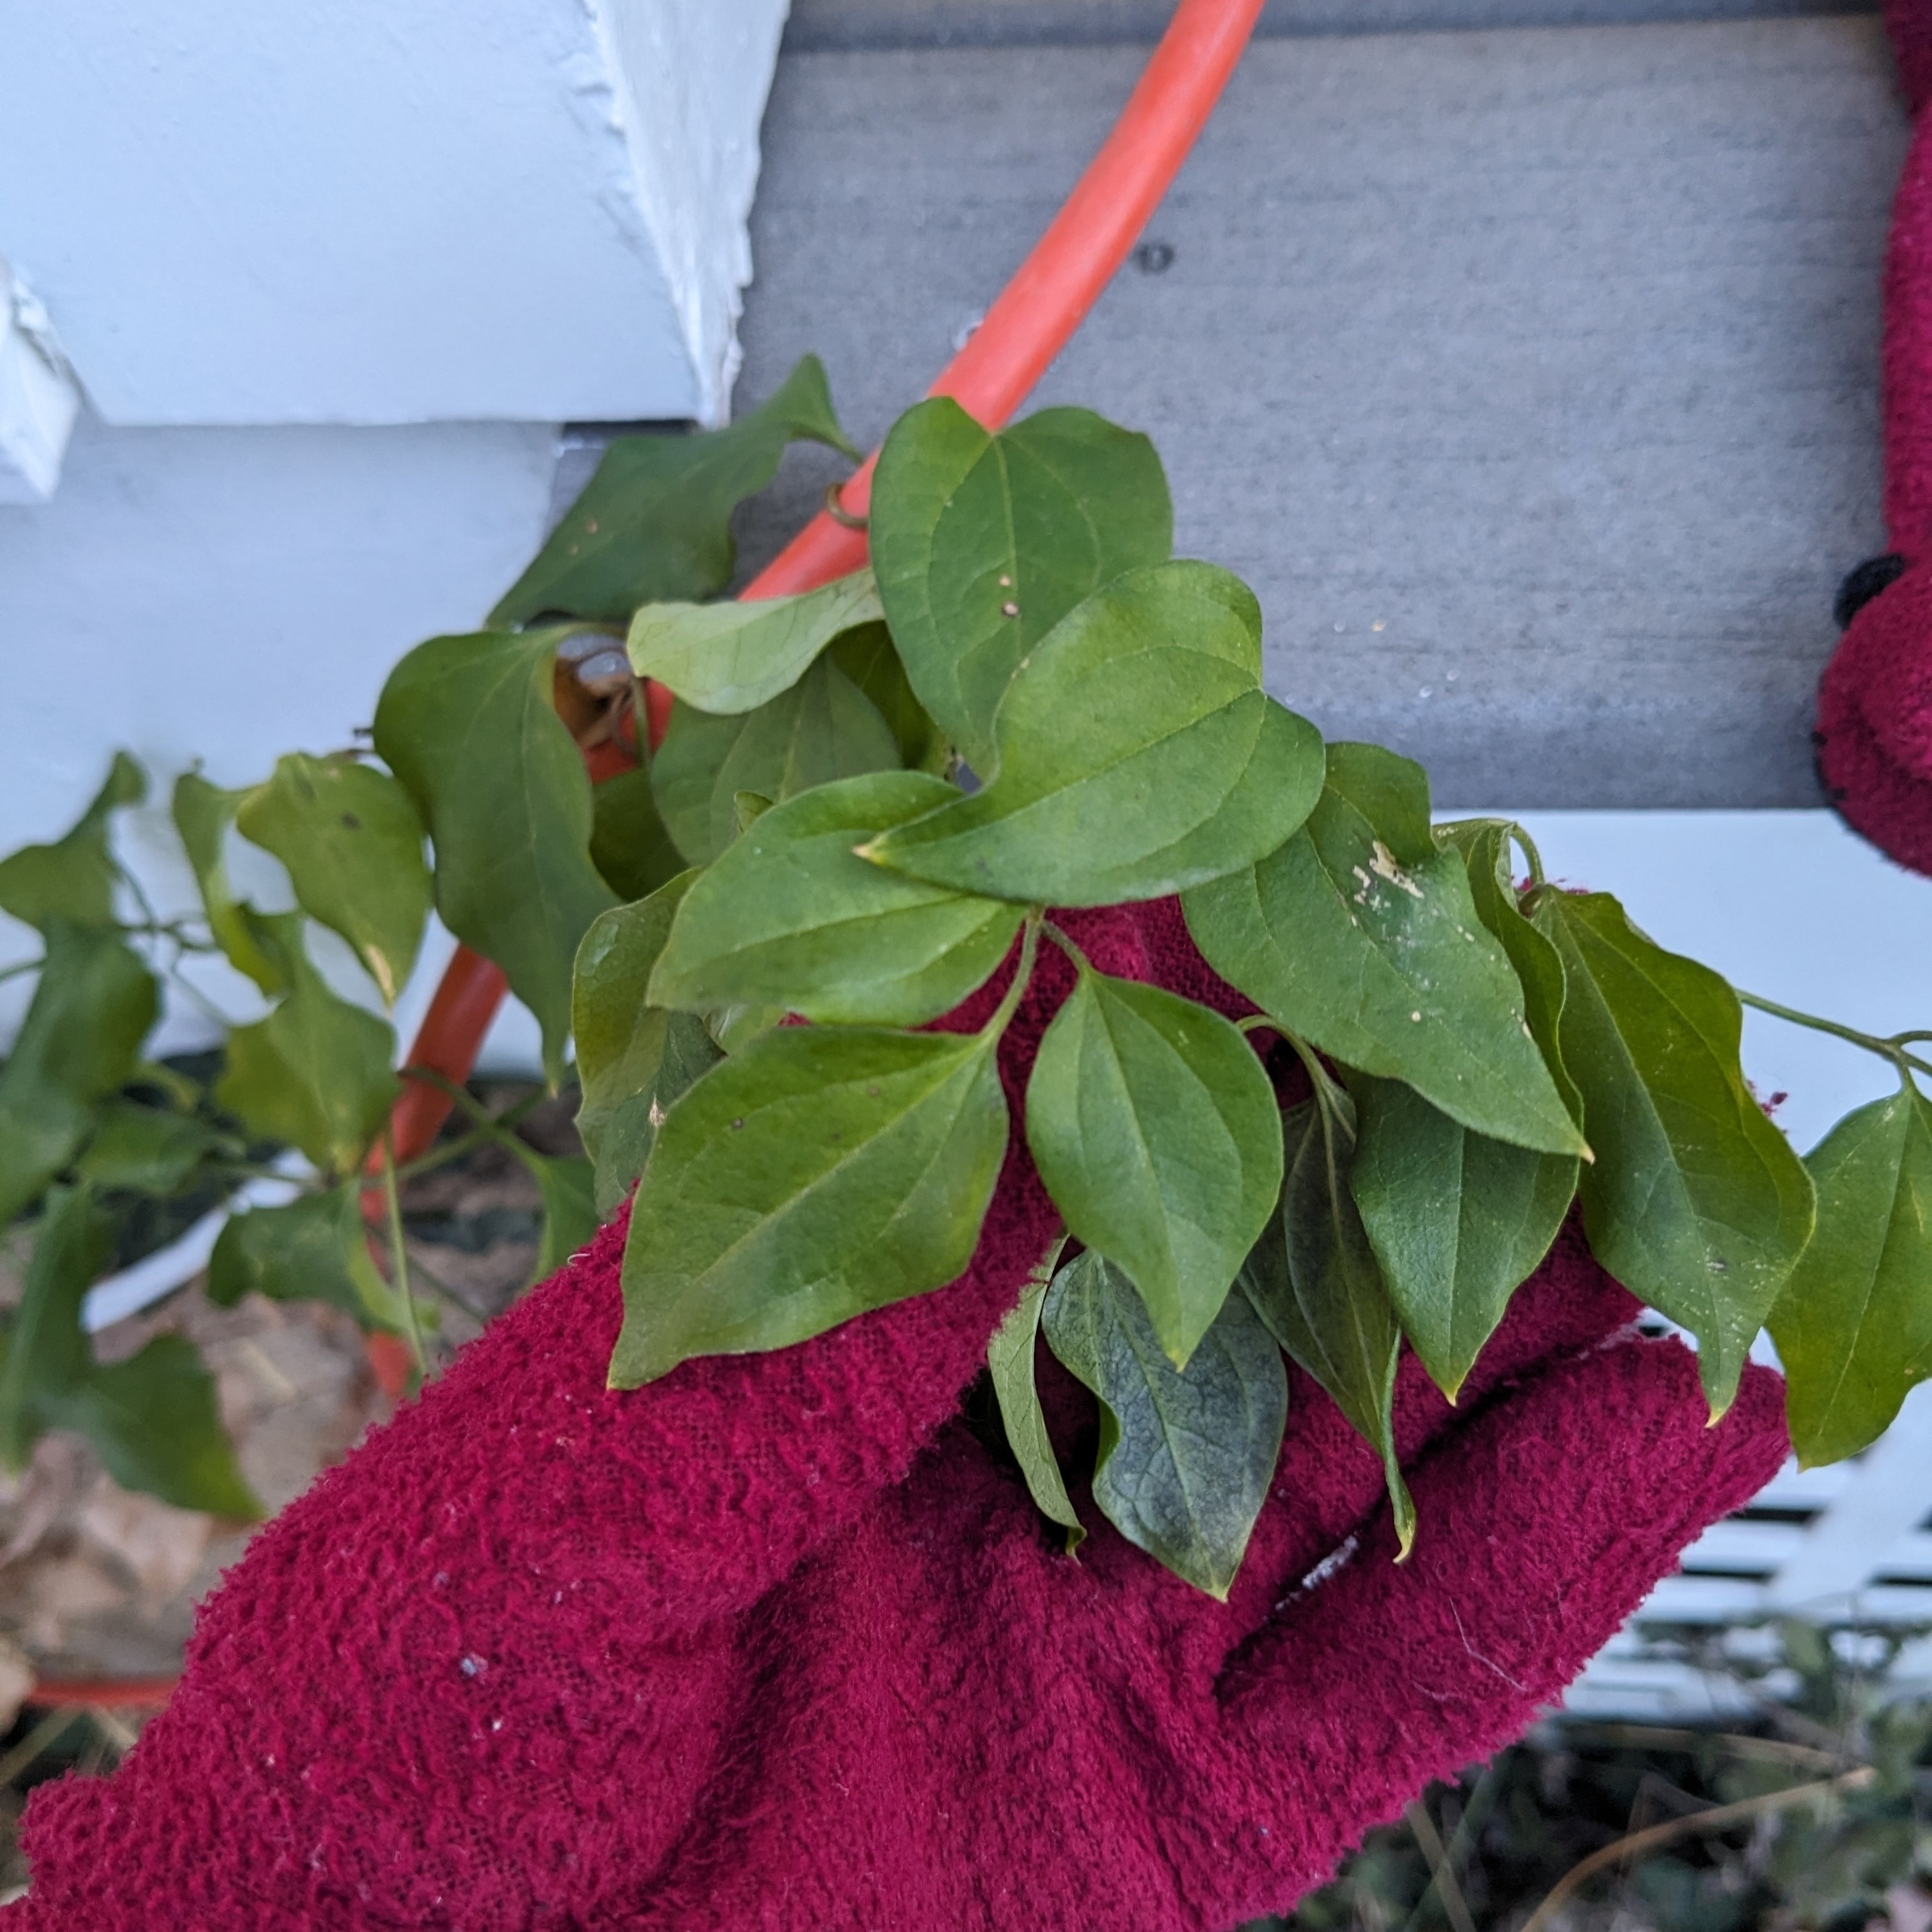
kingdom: Plantae
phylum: Tracheophyta
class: Magnoliopsida
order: Ranunculales
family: Ranunculaceae
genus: Clematis
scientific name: Clematis terniflora
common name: Sweet autumn clematis
